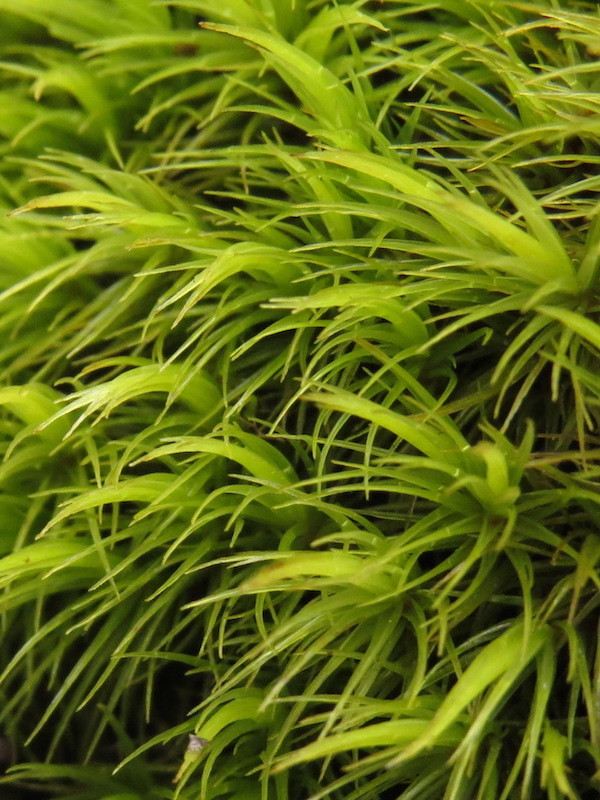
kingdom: Plantae
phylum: Bryophyta
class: Bryopsida
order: Dicranales
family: Dicranaceae
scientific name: Dicranaceae
